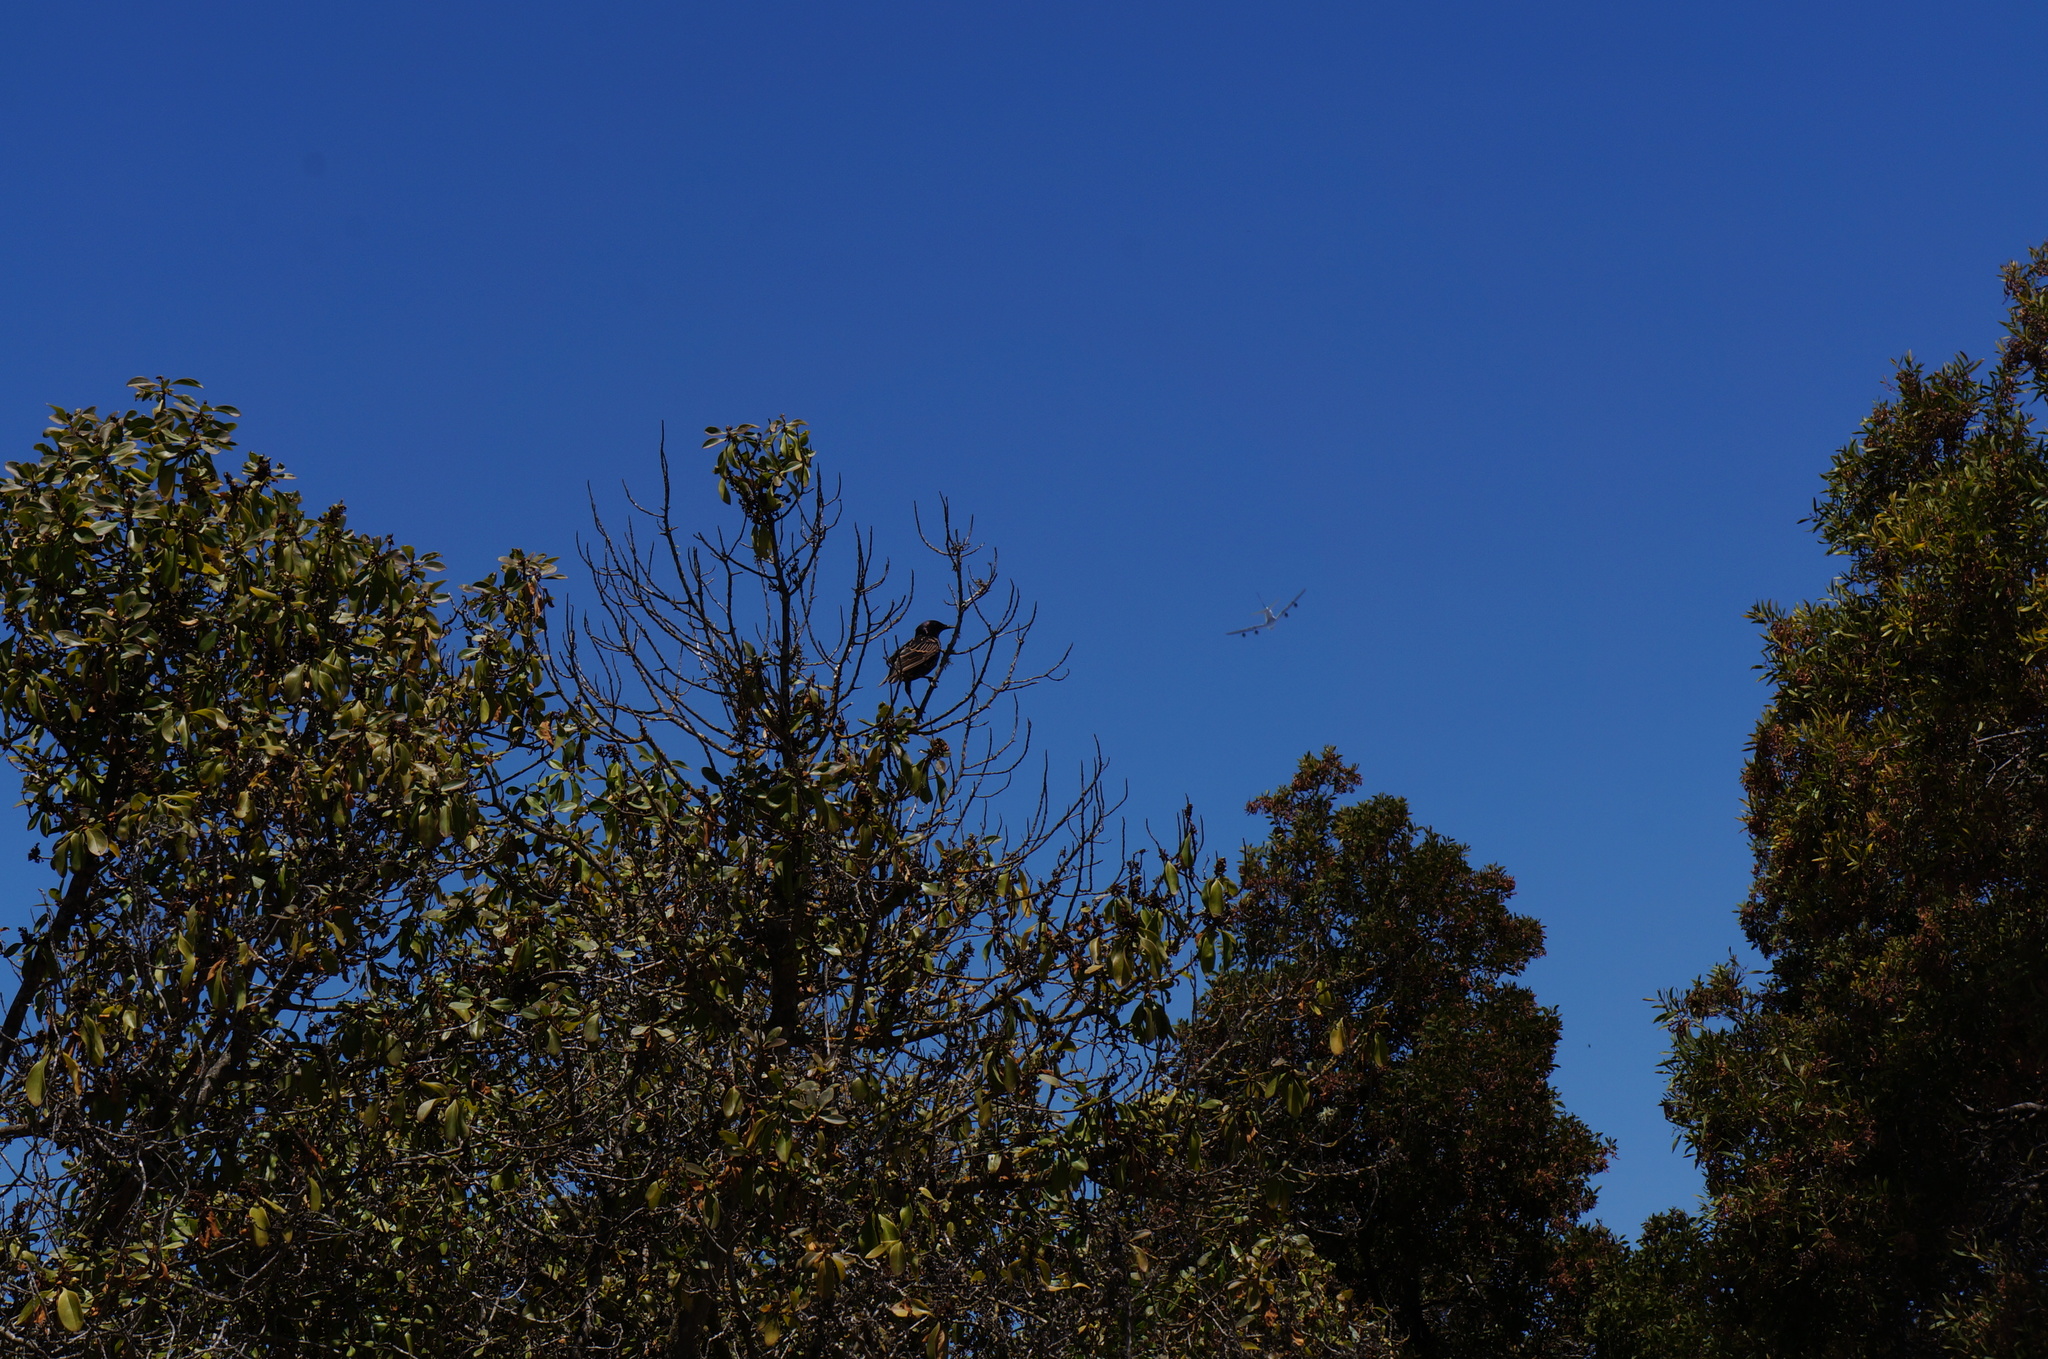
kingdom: Animalia
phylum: Chordata
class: Aves
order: Passeriformes
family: Sturnidae
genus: Sturnus
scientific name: Sturnus vulgaris
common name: Common starling
